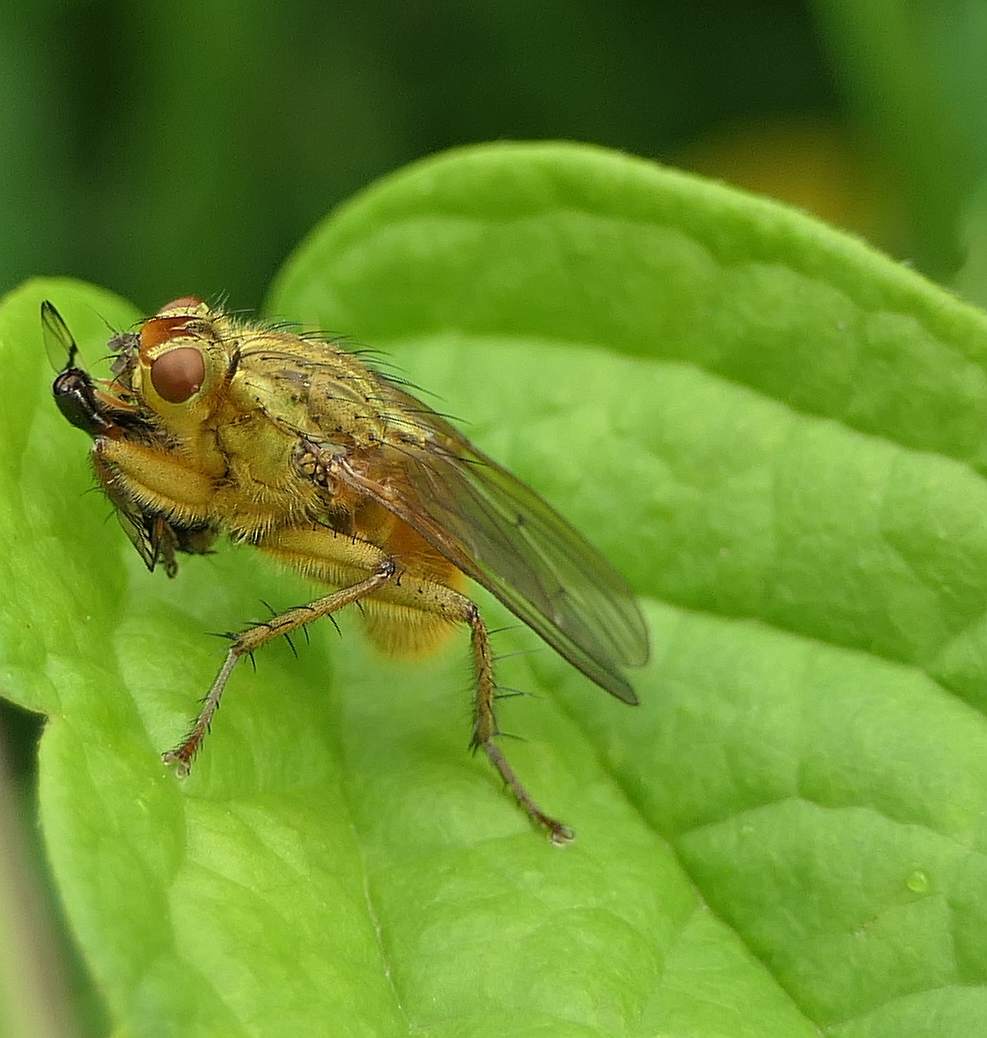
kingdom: Animalia
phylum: Arthropoda
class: Insecta
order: Diptera
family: Scathophagidae
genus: Scathophaga
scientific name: Scathophaga stercoraria
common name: Yellow dung fly
